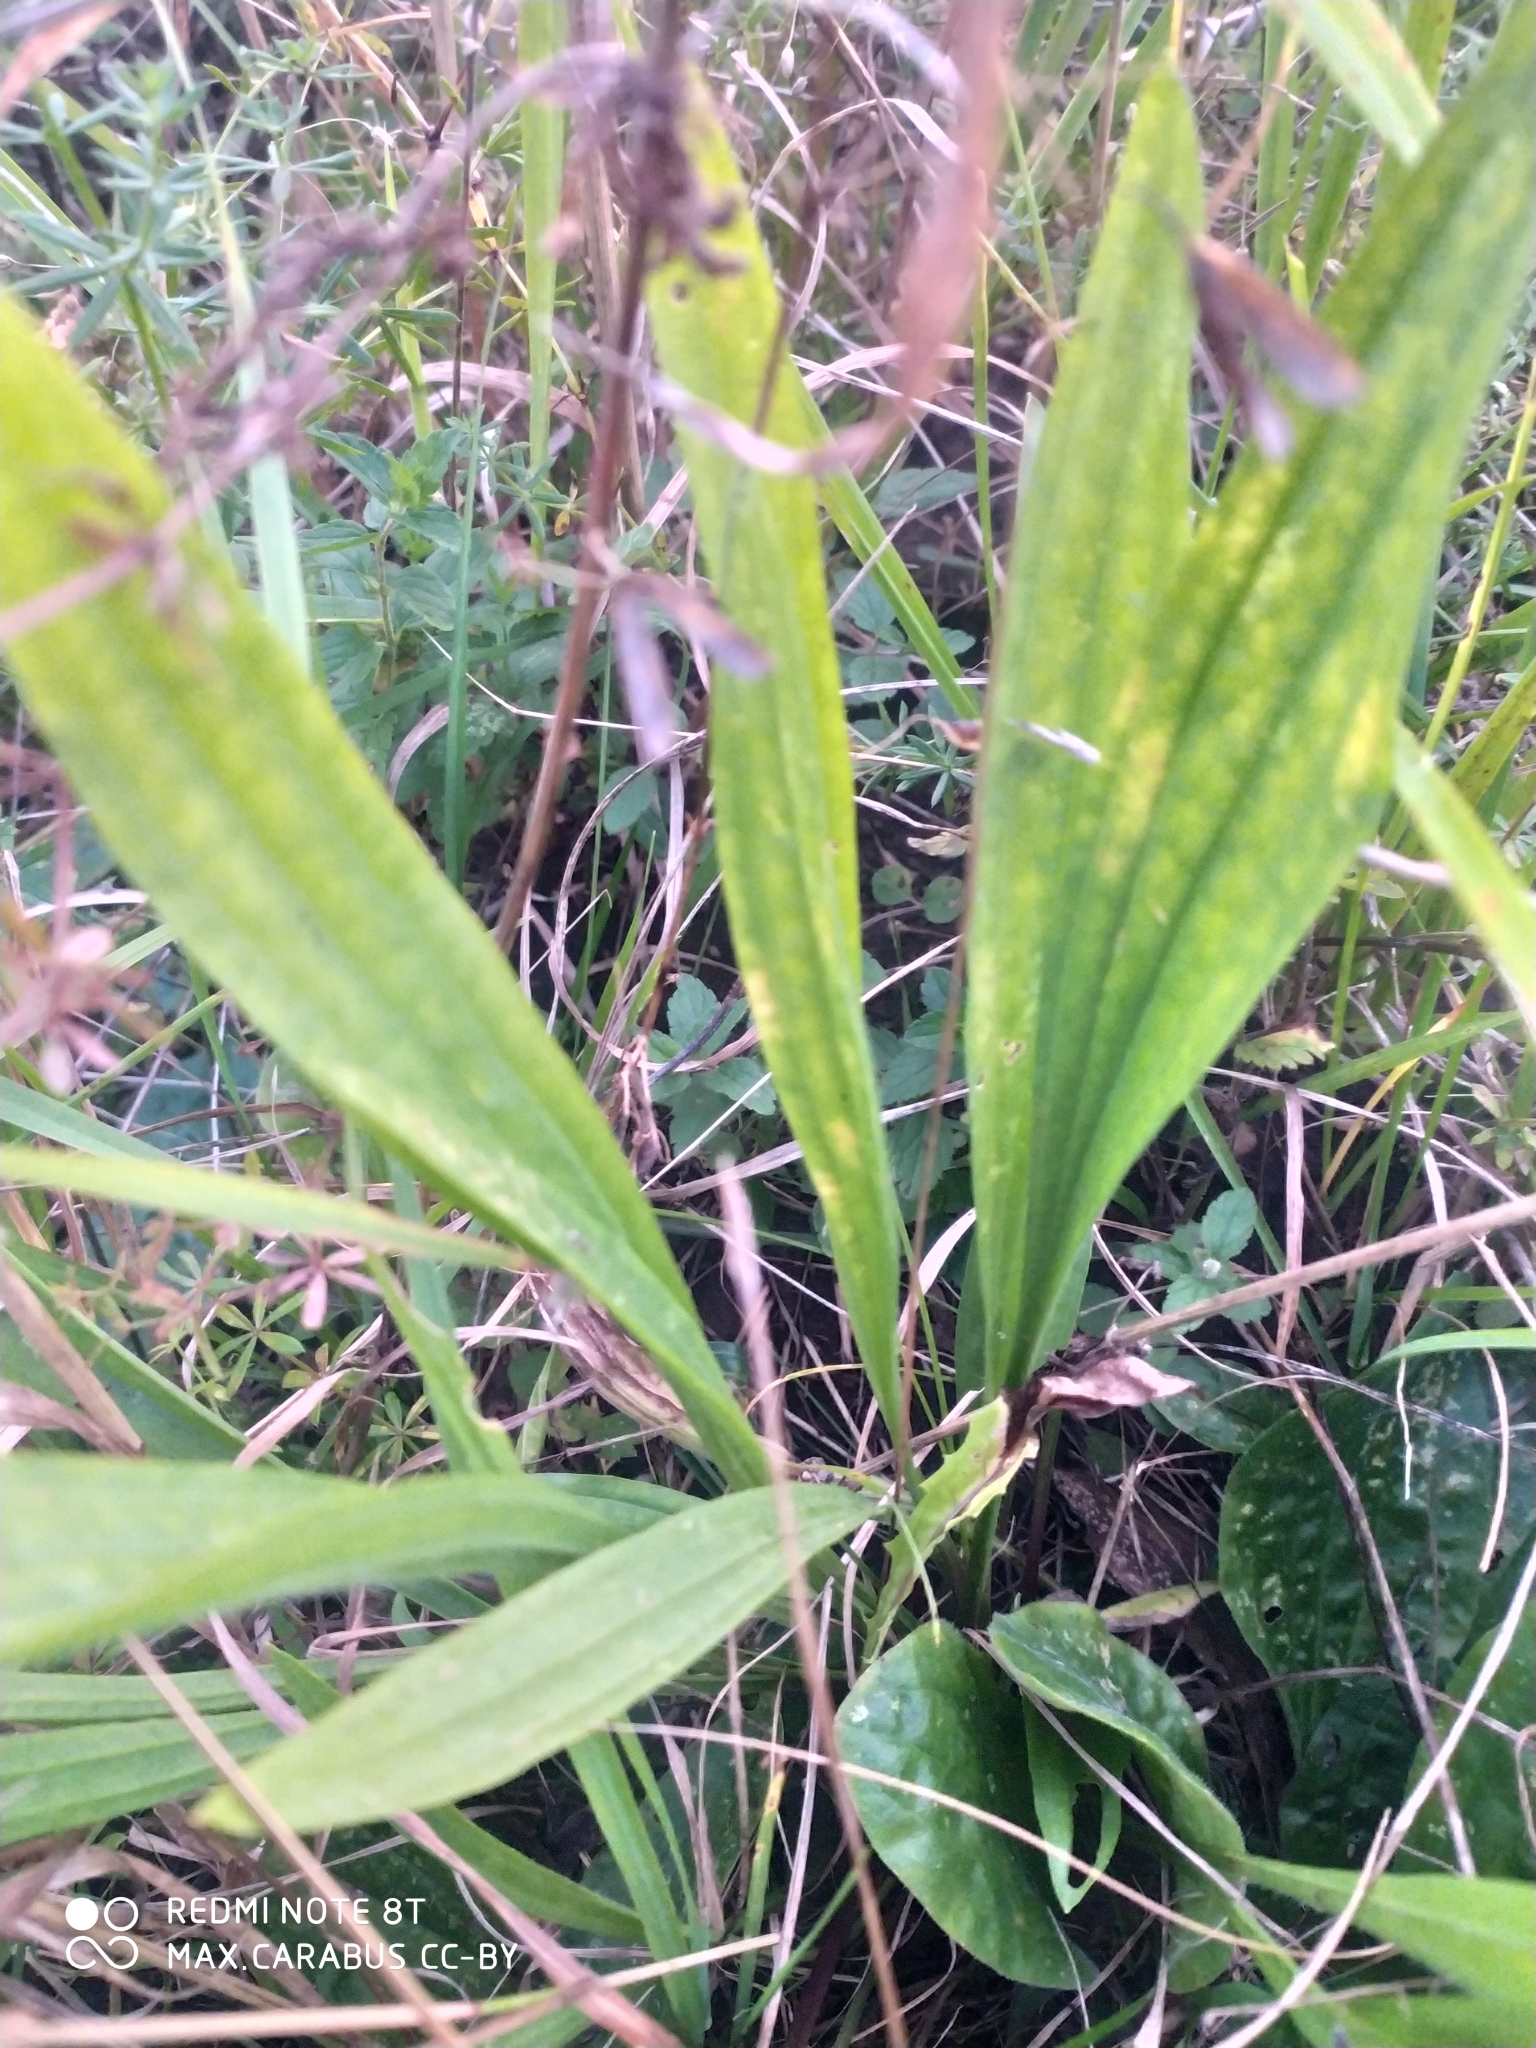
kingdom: Plantae
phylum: Tracheophyta
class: Magnoliopsida
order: Lamiales
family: Plantaginaceae
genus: Plantago
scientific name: Plantago lanceolata
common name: Ribwort plantain
